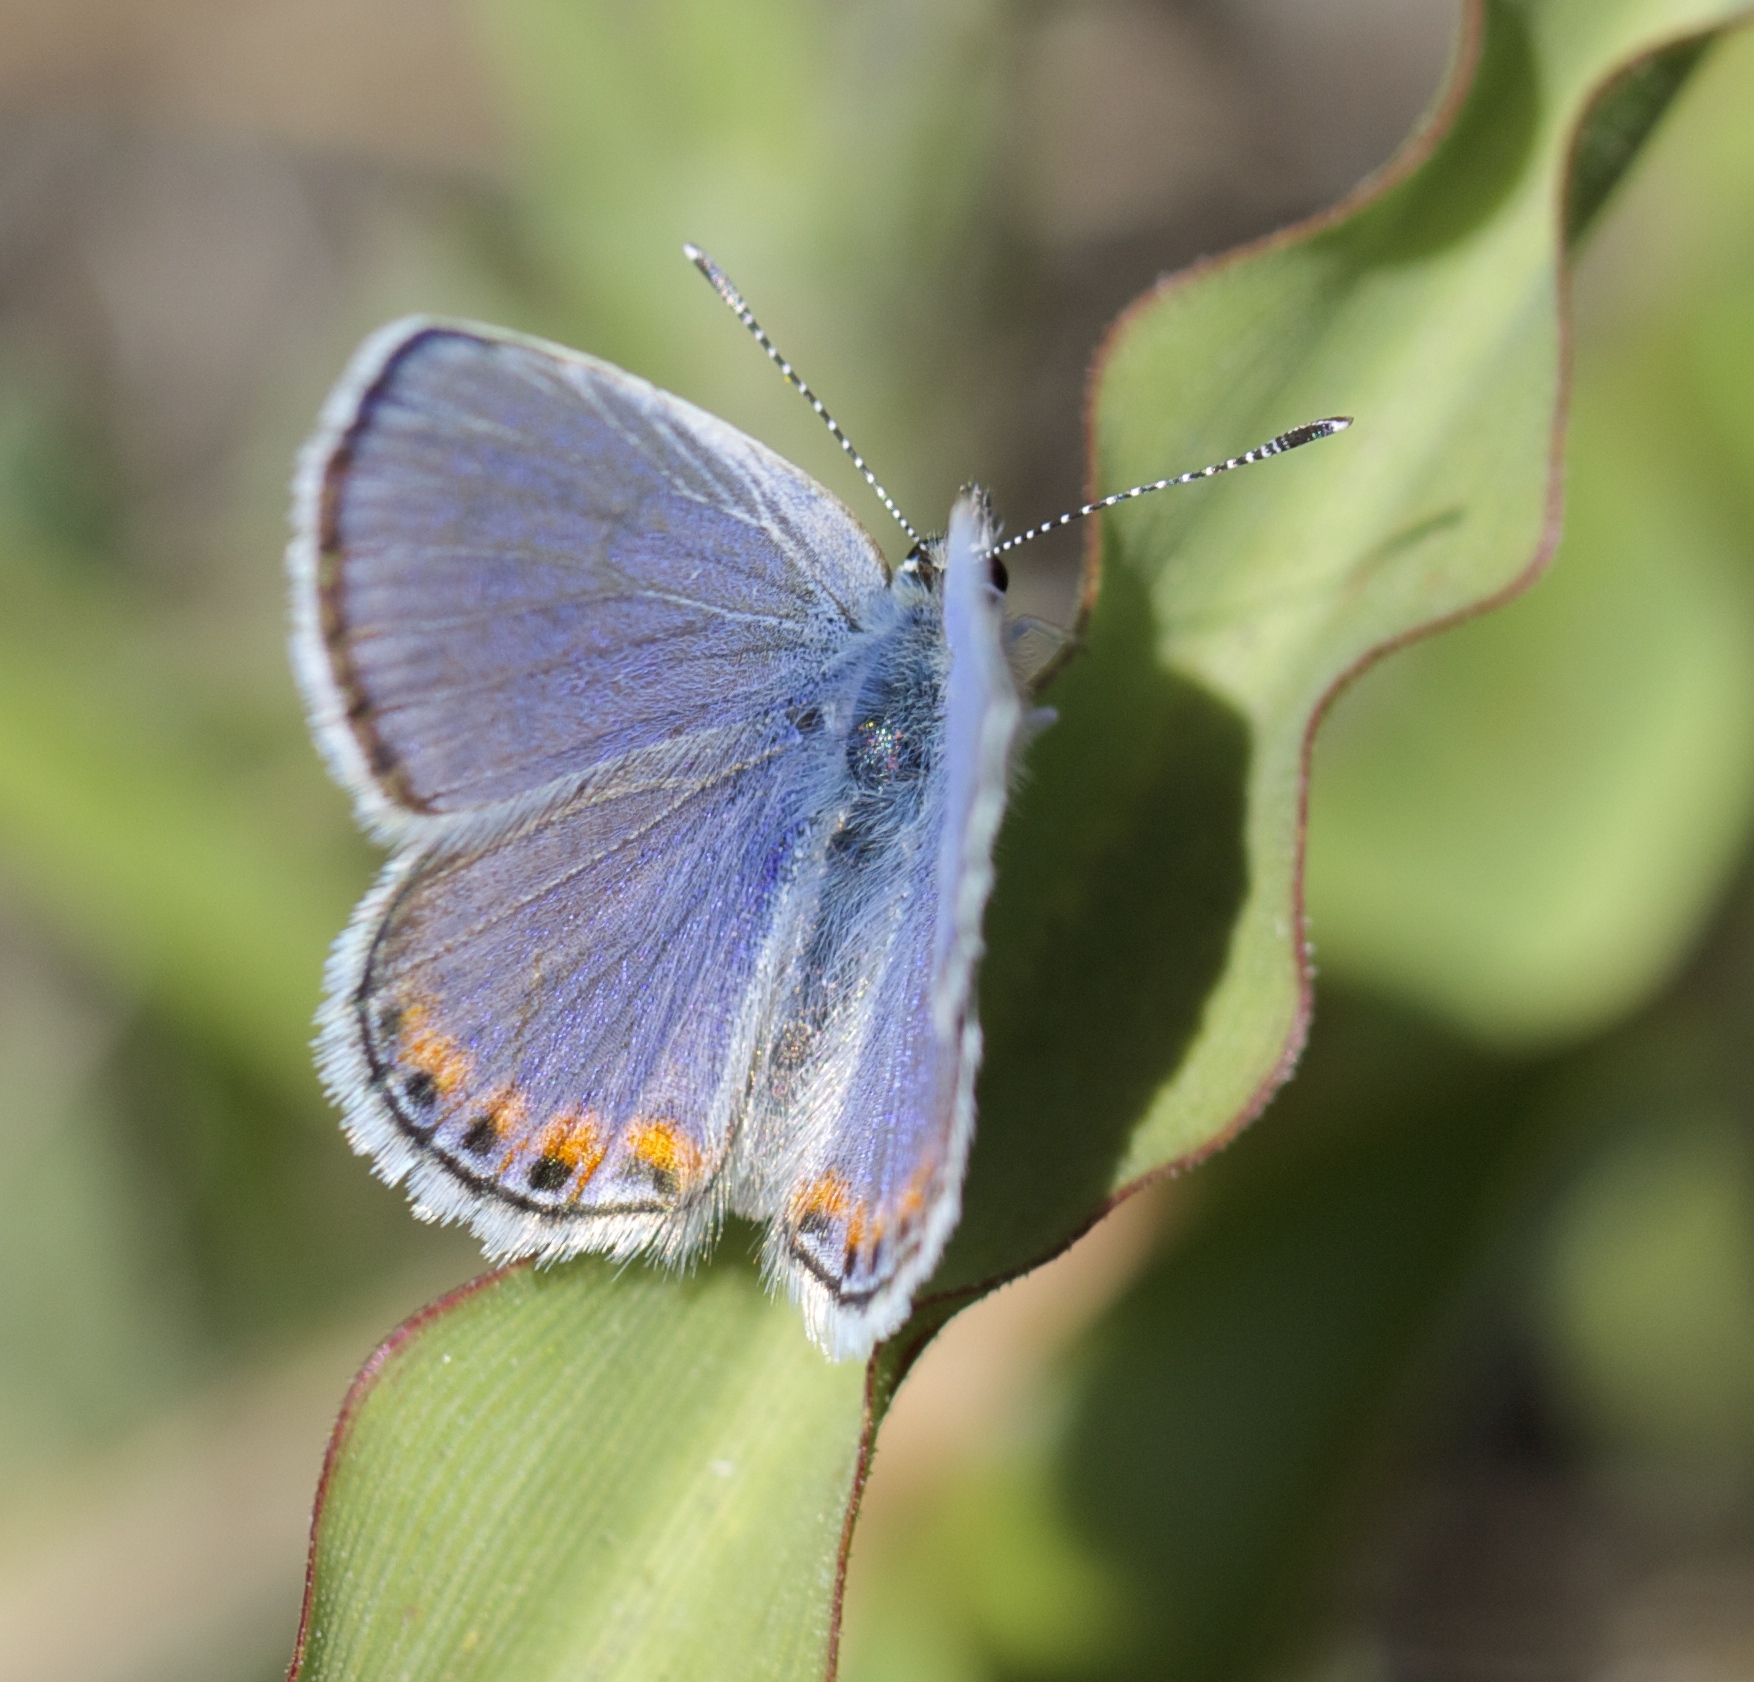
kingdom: Animalia
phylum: Arthropoda
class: Insecta
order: Lepidoptera
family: Lycaenidae
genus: Icaricia
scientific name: Icaricia acmon
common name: Acmon blue
